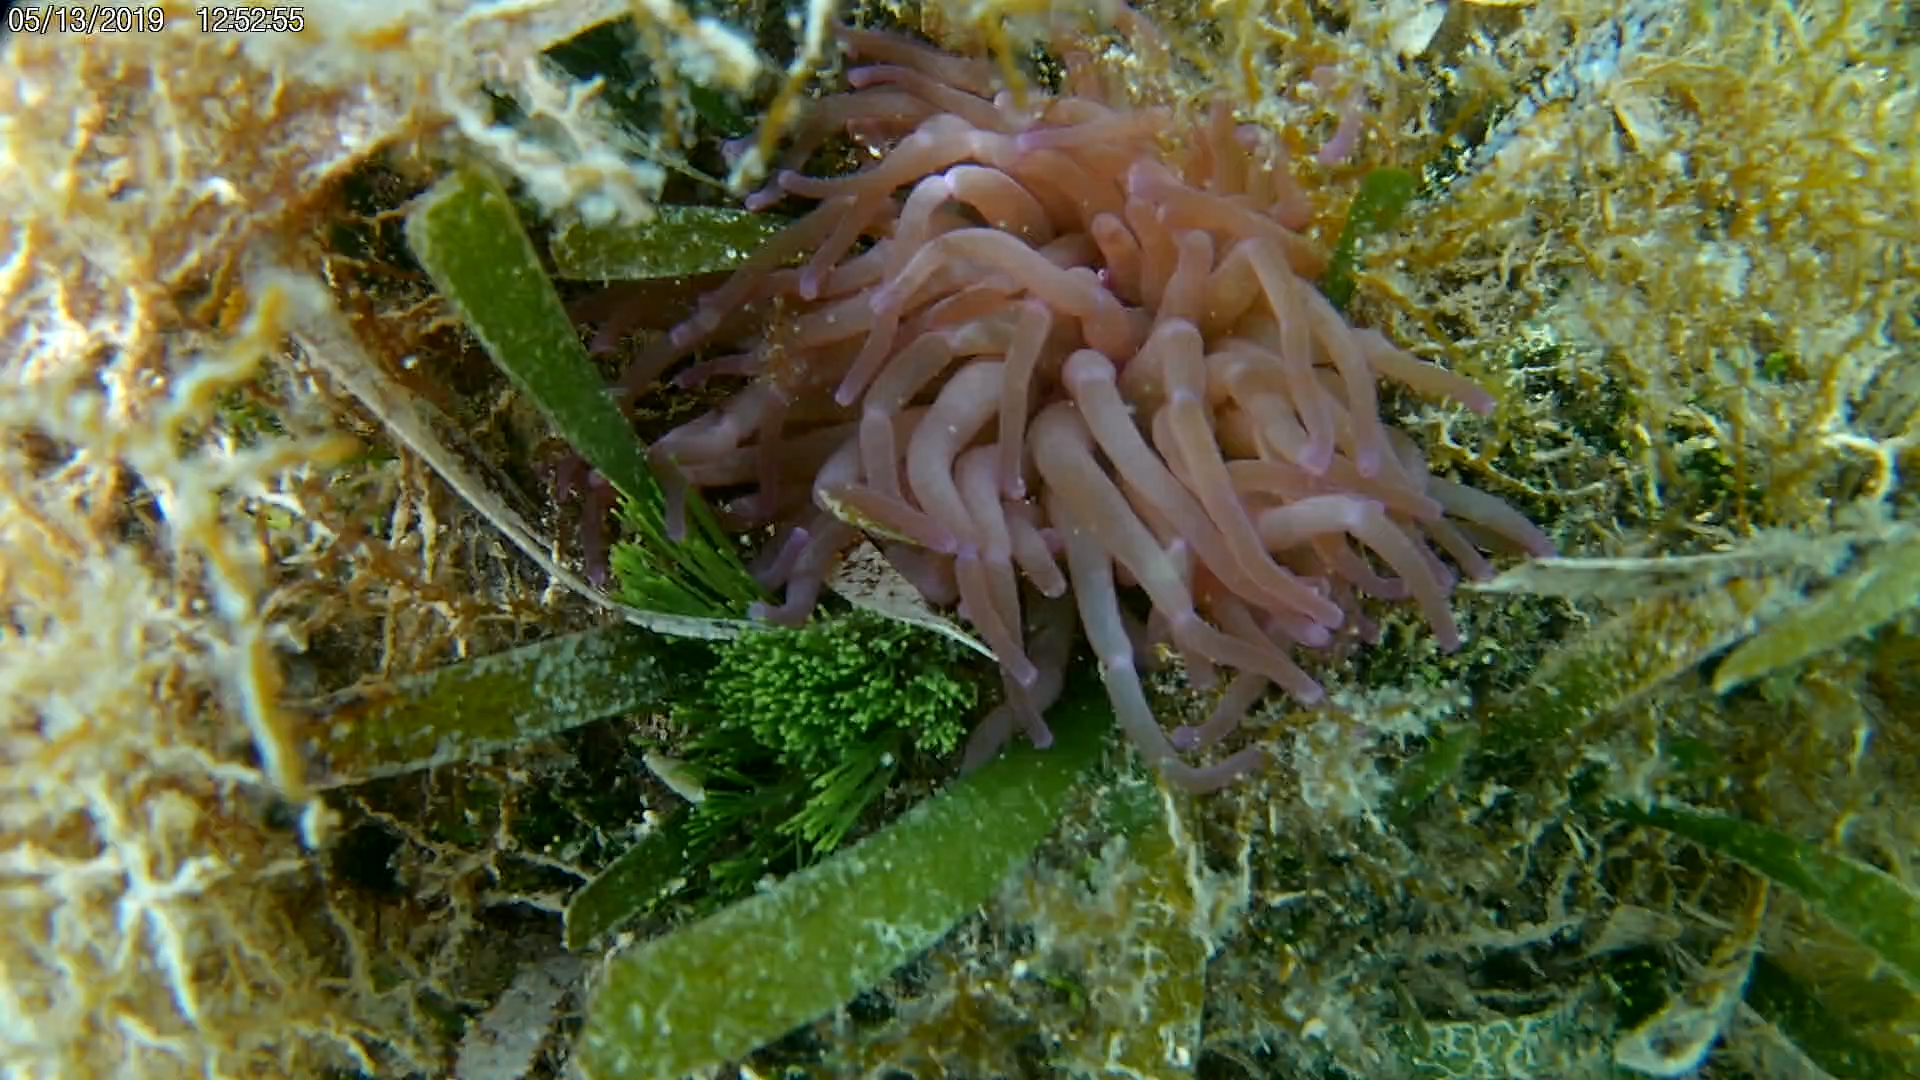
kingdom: Animalia
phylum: Cnidaria
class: Anthozoa
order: Actiniaria
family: Actiniidae
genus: Condylactis
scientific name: Condylactis gigantea
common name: Giant caribbean anemone
